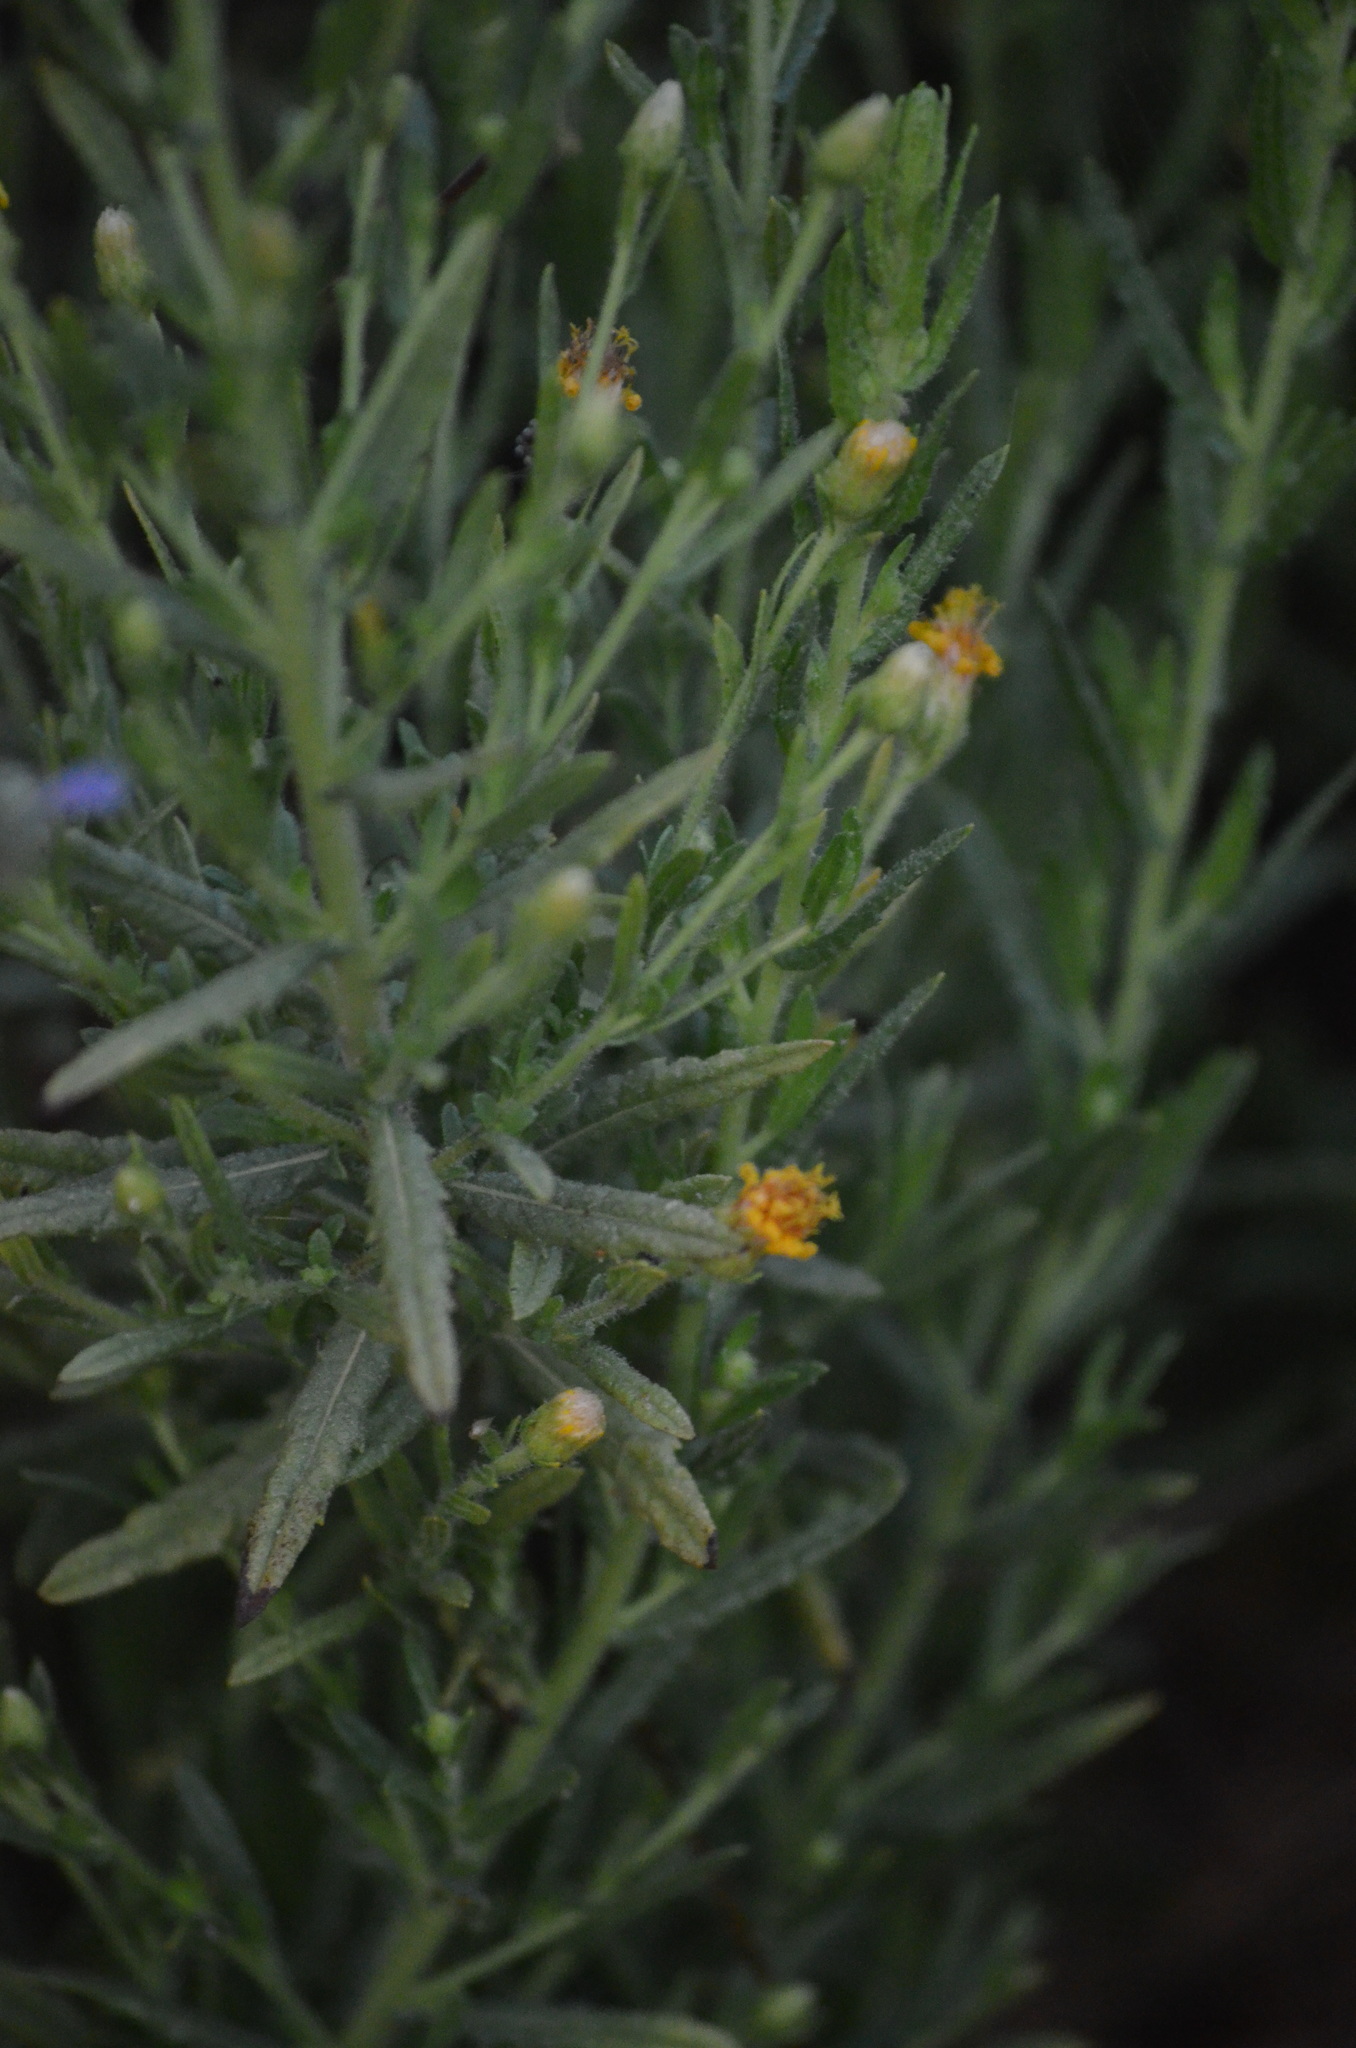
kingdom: Plantae
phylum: Tracheophyta
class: Magnoliopsida
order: Asterales
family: Asteraceae
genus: Dittrichia
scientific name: Dittrichia viscosa
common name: Woody fleabane
